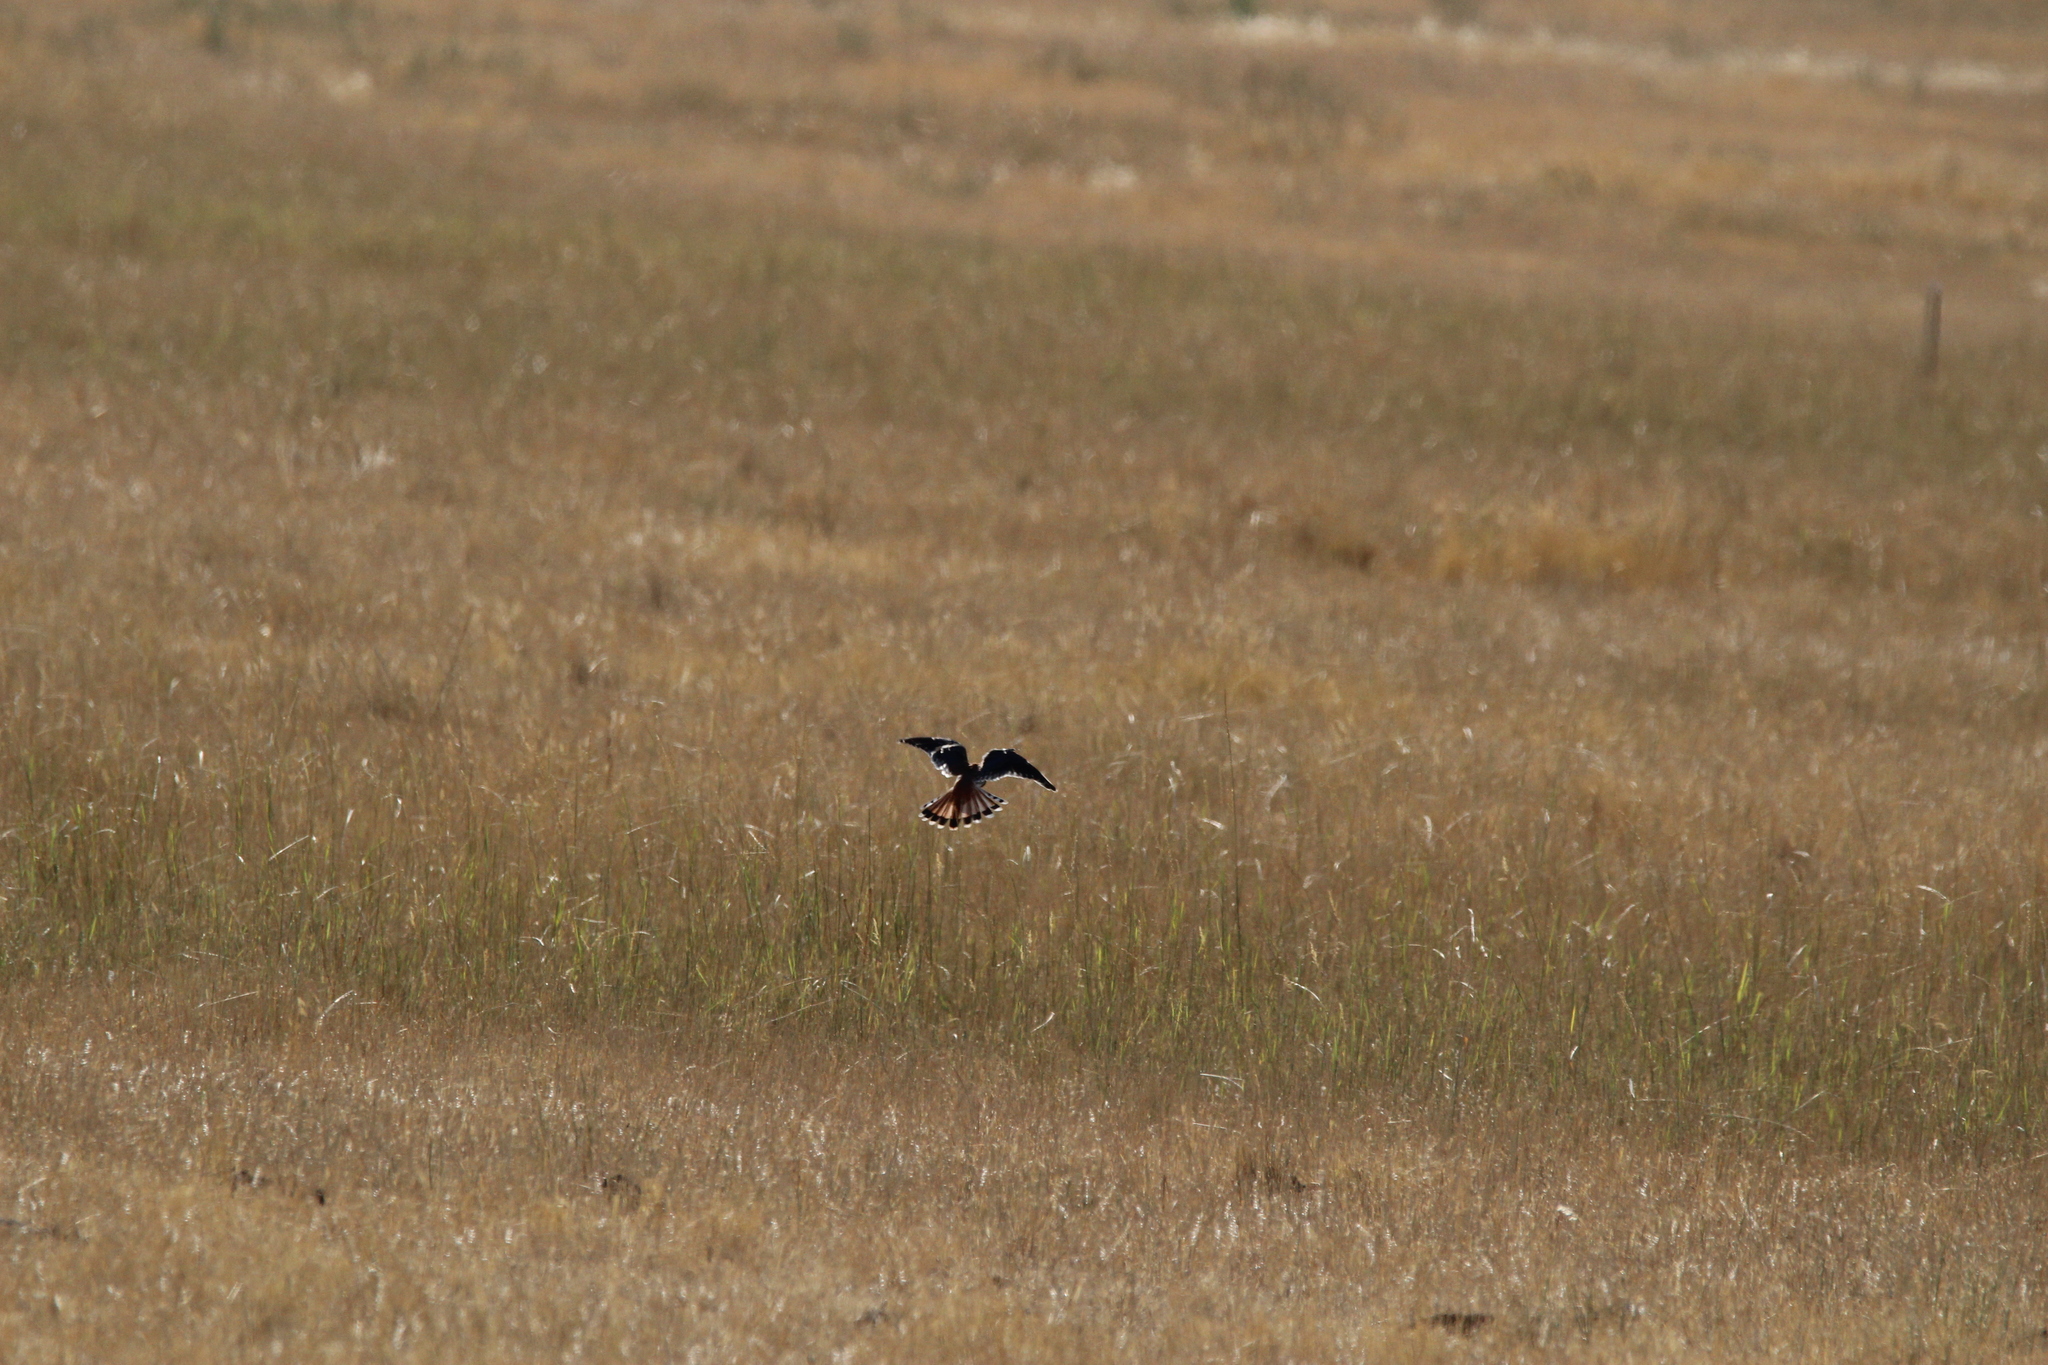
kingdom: Animalia
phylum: Chordata
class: Aves
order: Falconiformes
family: Falconidae
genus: Falco
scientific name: Falco sparverius
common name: American kestrel
